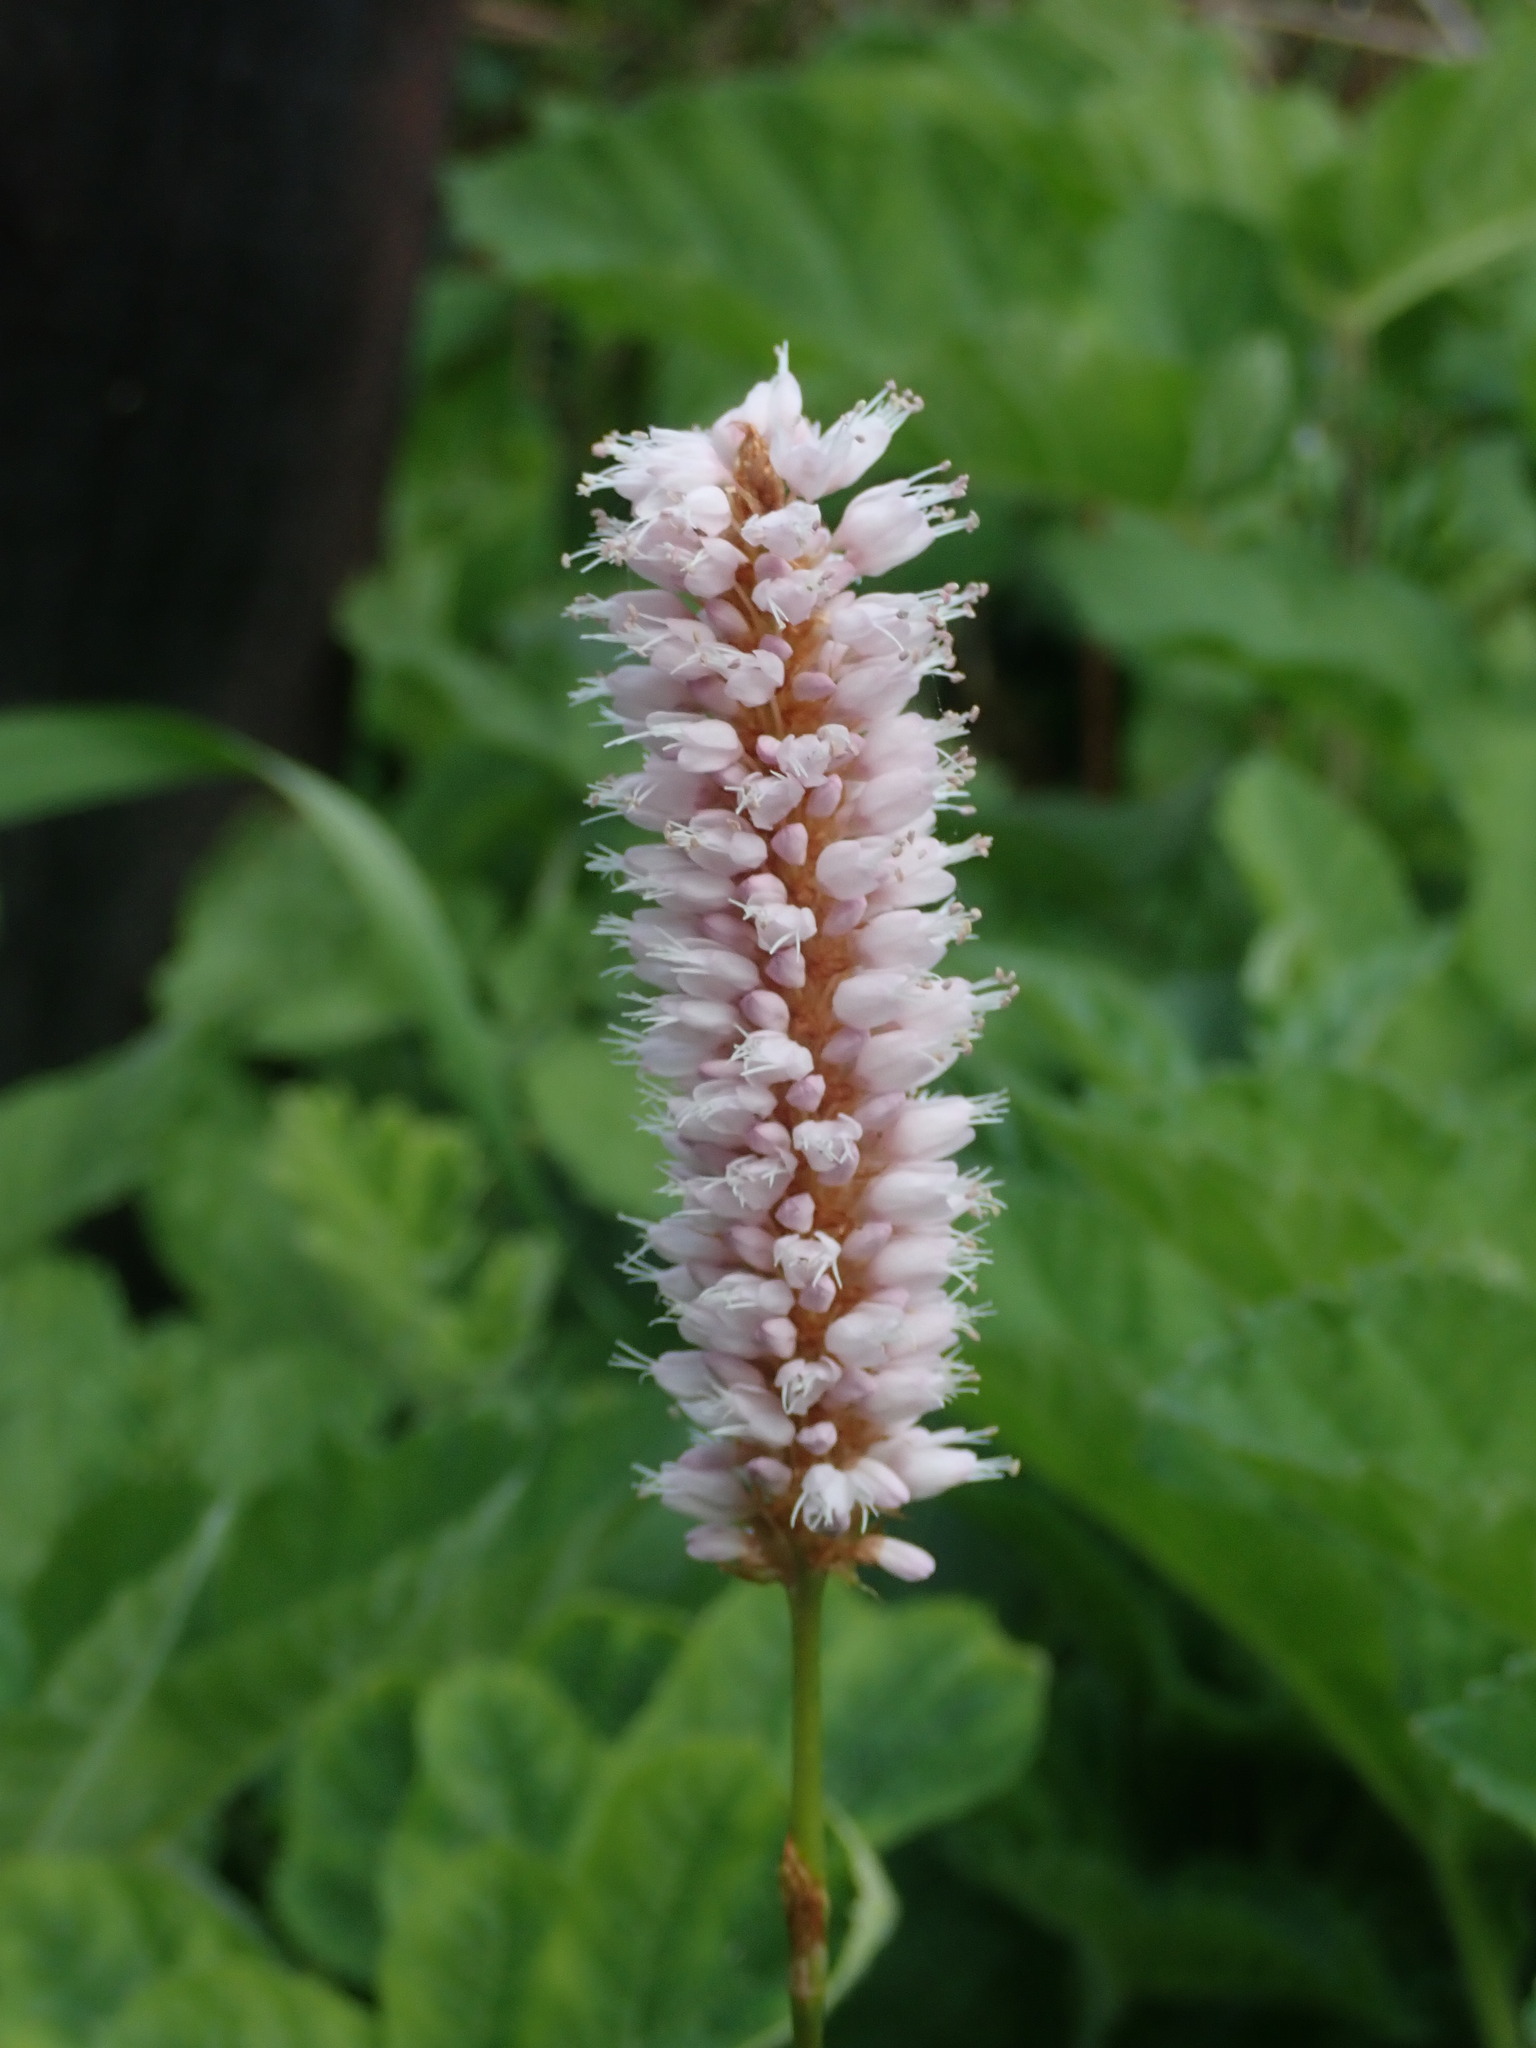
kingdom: Plantae
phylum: Tracheophyta
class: Magnoliopsida
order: Caryophyllales
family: Polygonaceae
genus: Bistorta
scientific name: Bistorta officinalis
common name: Common bistort
